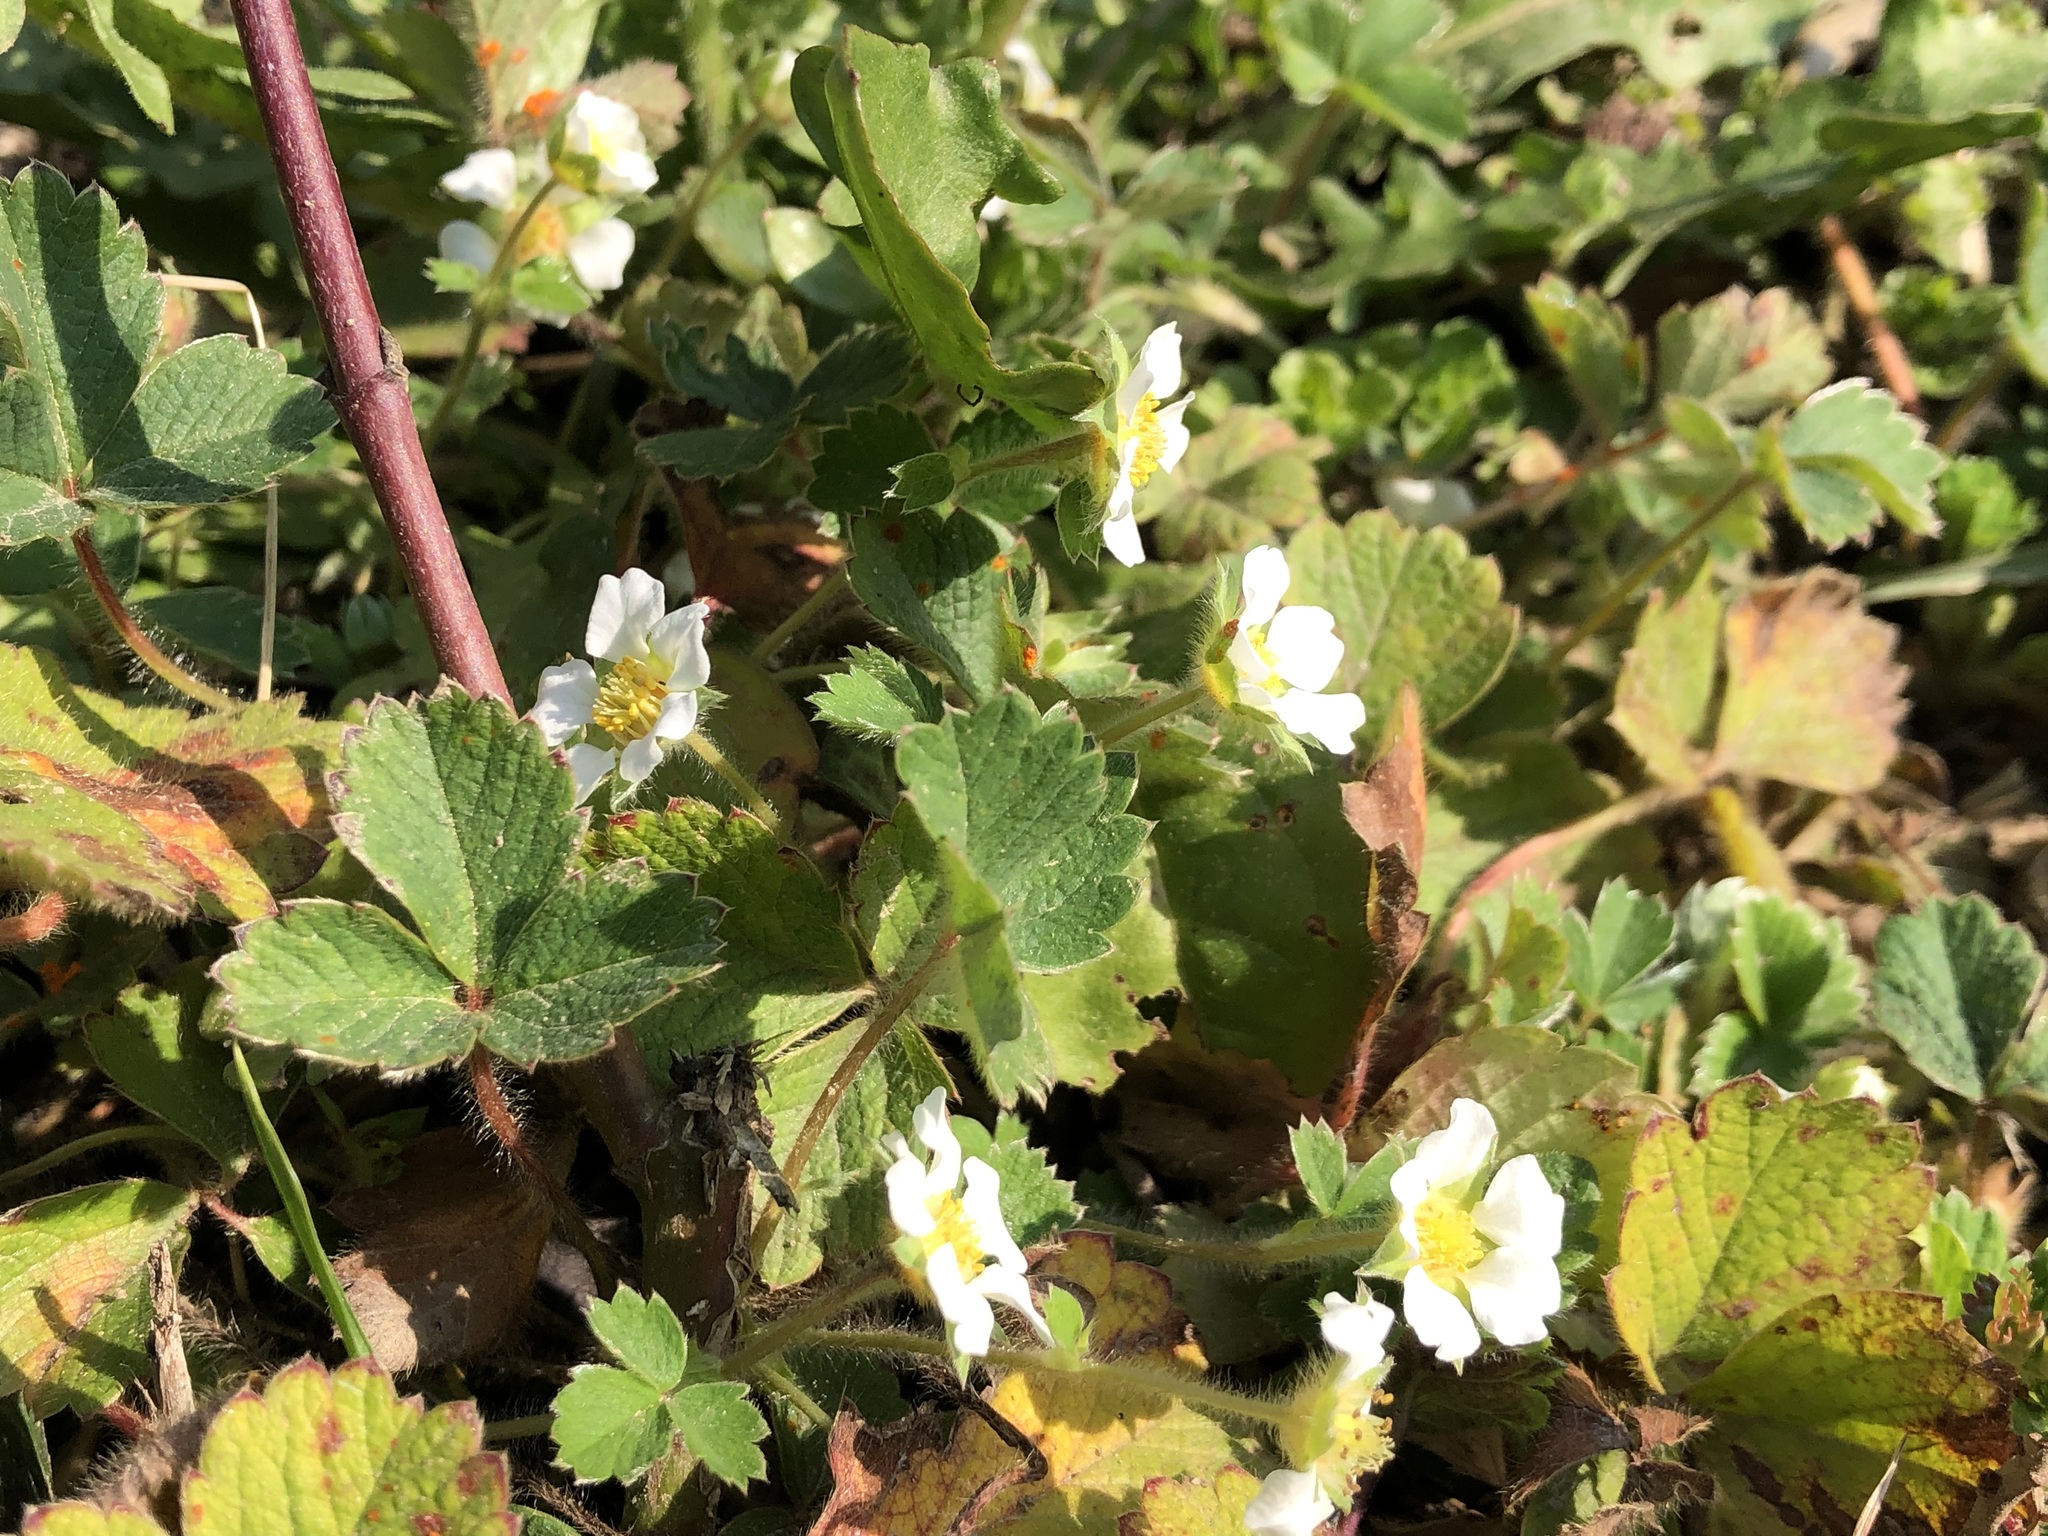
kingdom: Plantae
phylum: Tracheophyta
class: Magnoliopsida
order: Rosales
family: Rosaceae
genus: Potentilla
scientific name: Potentilla sterilis
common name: Barren strawberry
